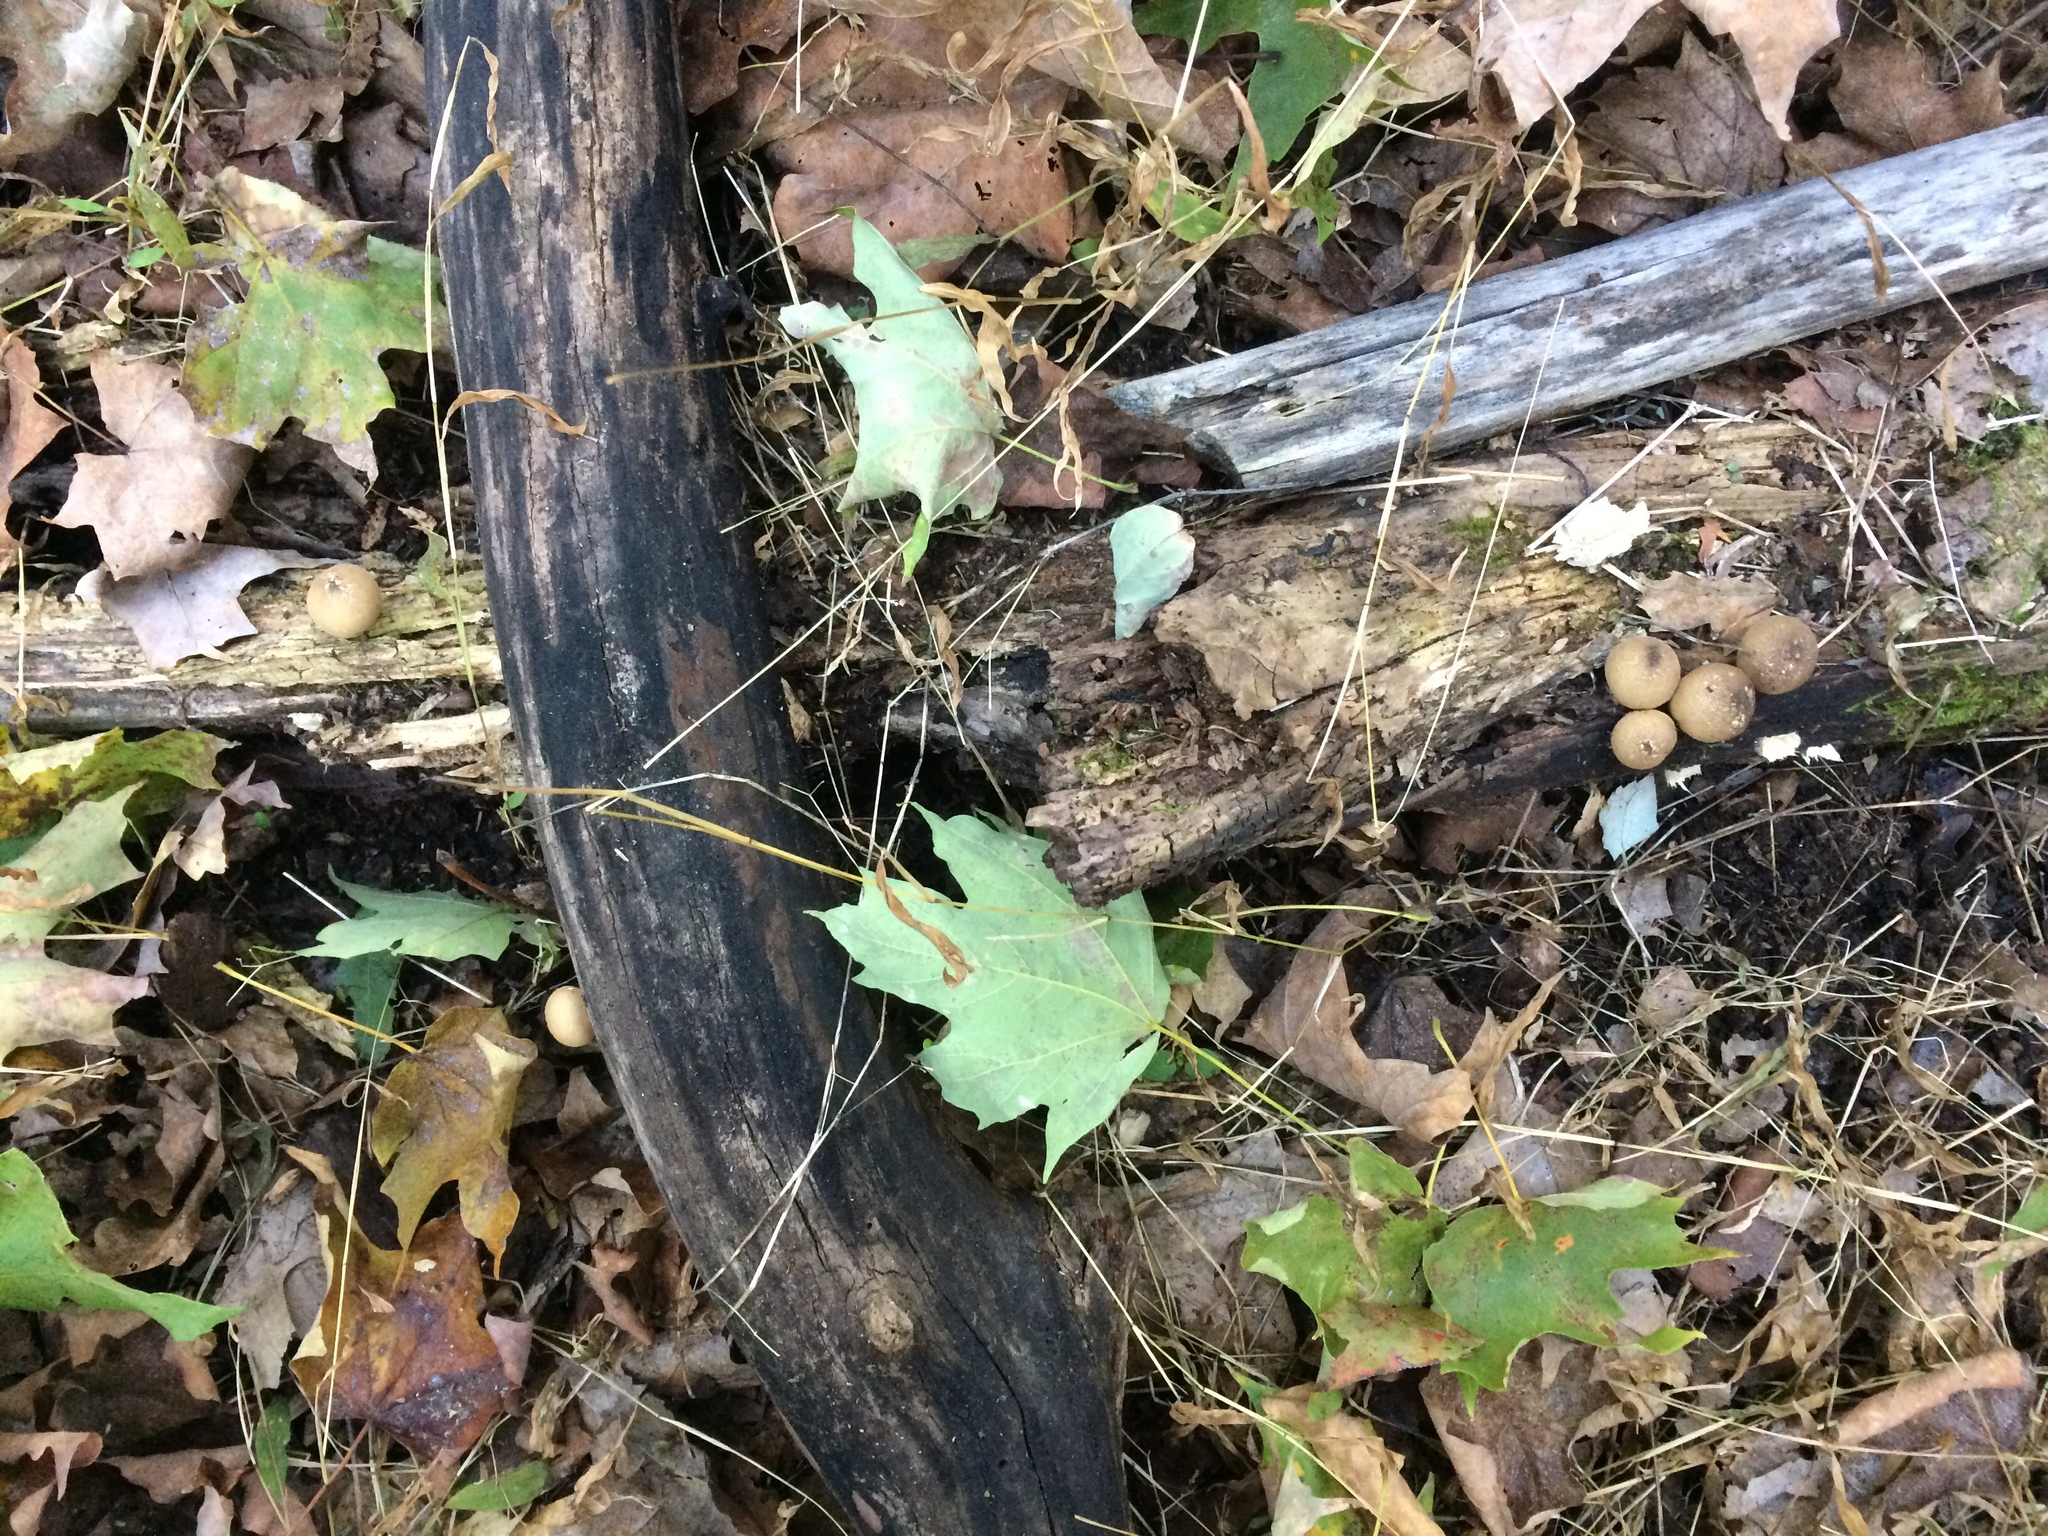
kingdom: Fungi
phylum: Basidiomycota
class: Agaricomycetes
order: Agaricales
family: Lycoperdaceae
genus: Apioperdon
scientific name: Apioperdon pyriforme
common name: Pear-shaped puffball
